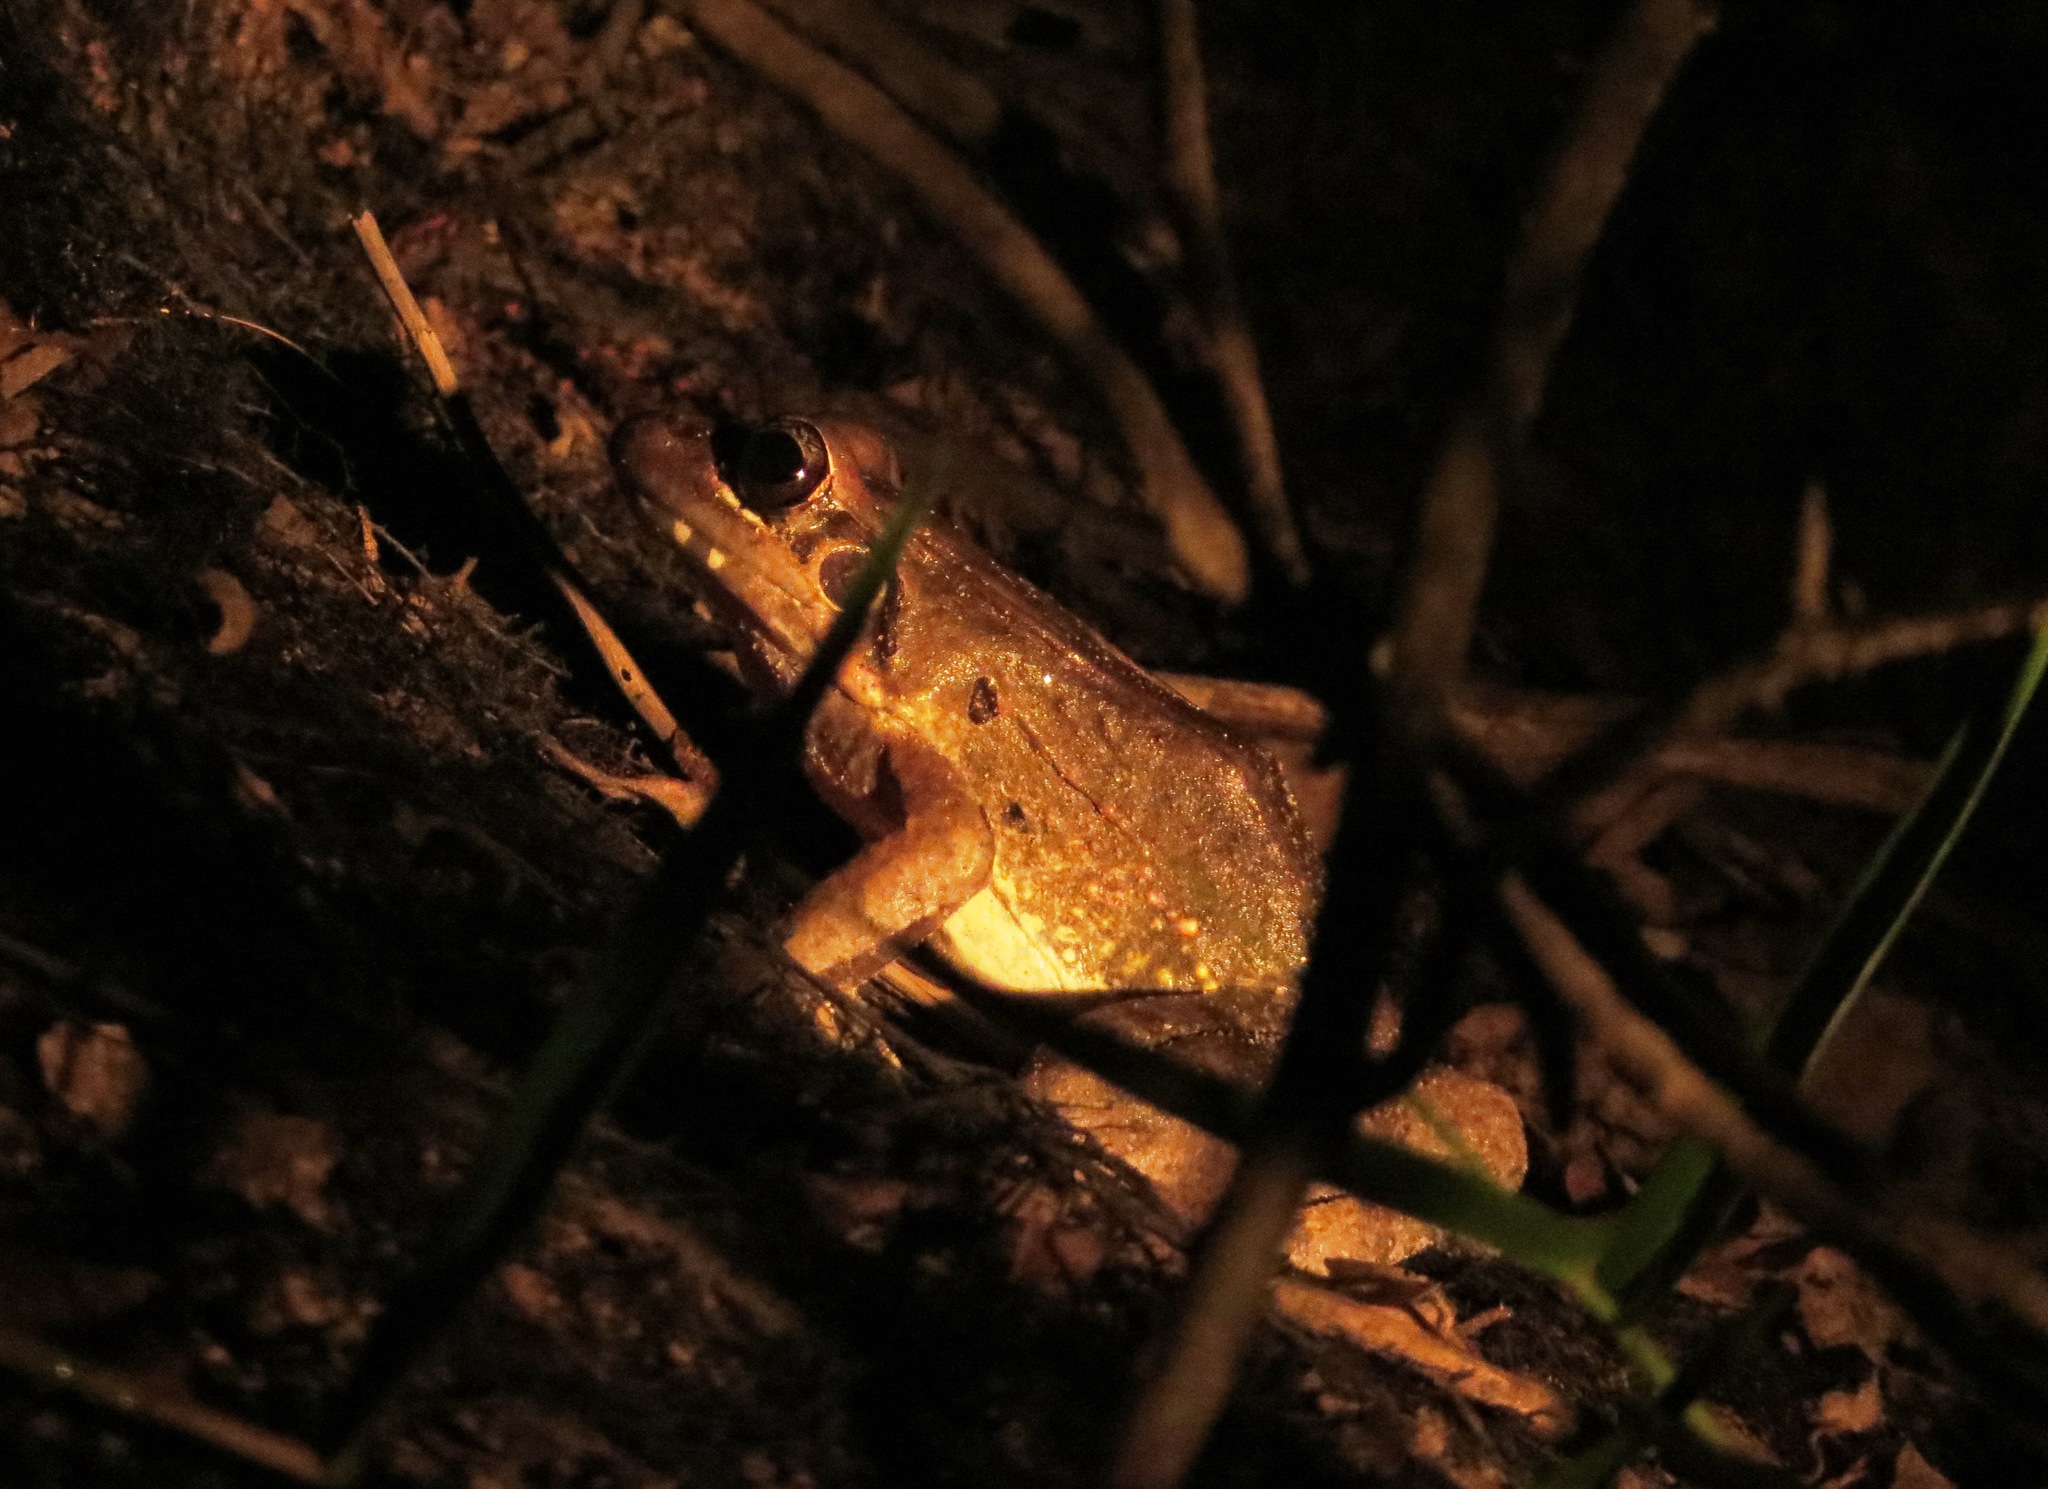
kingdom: Animalia
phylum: Chordata
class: Amphibia
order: Anura
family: Leptodactylidae
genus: Leptodactylus
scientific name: Leptodactylus pentadactylus
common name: Smoky jungle frog
